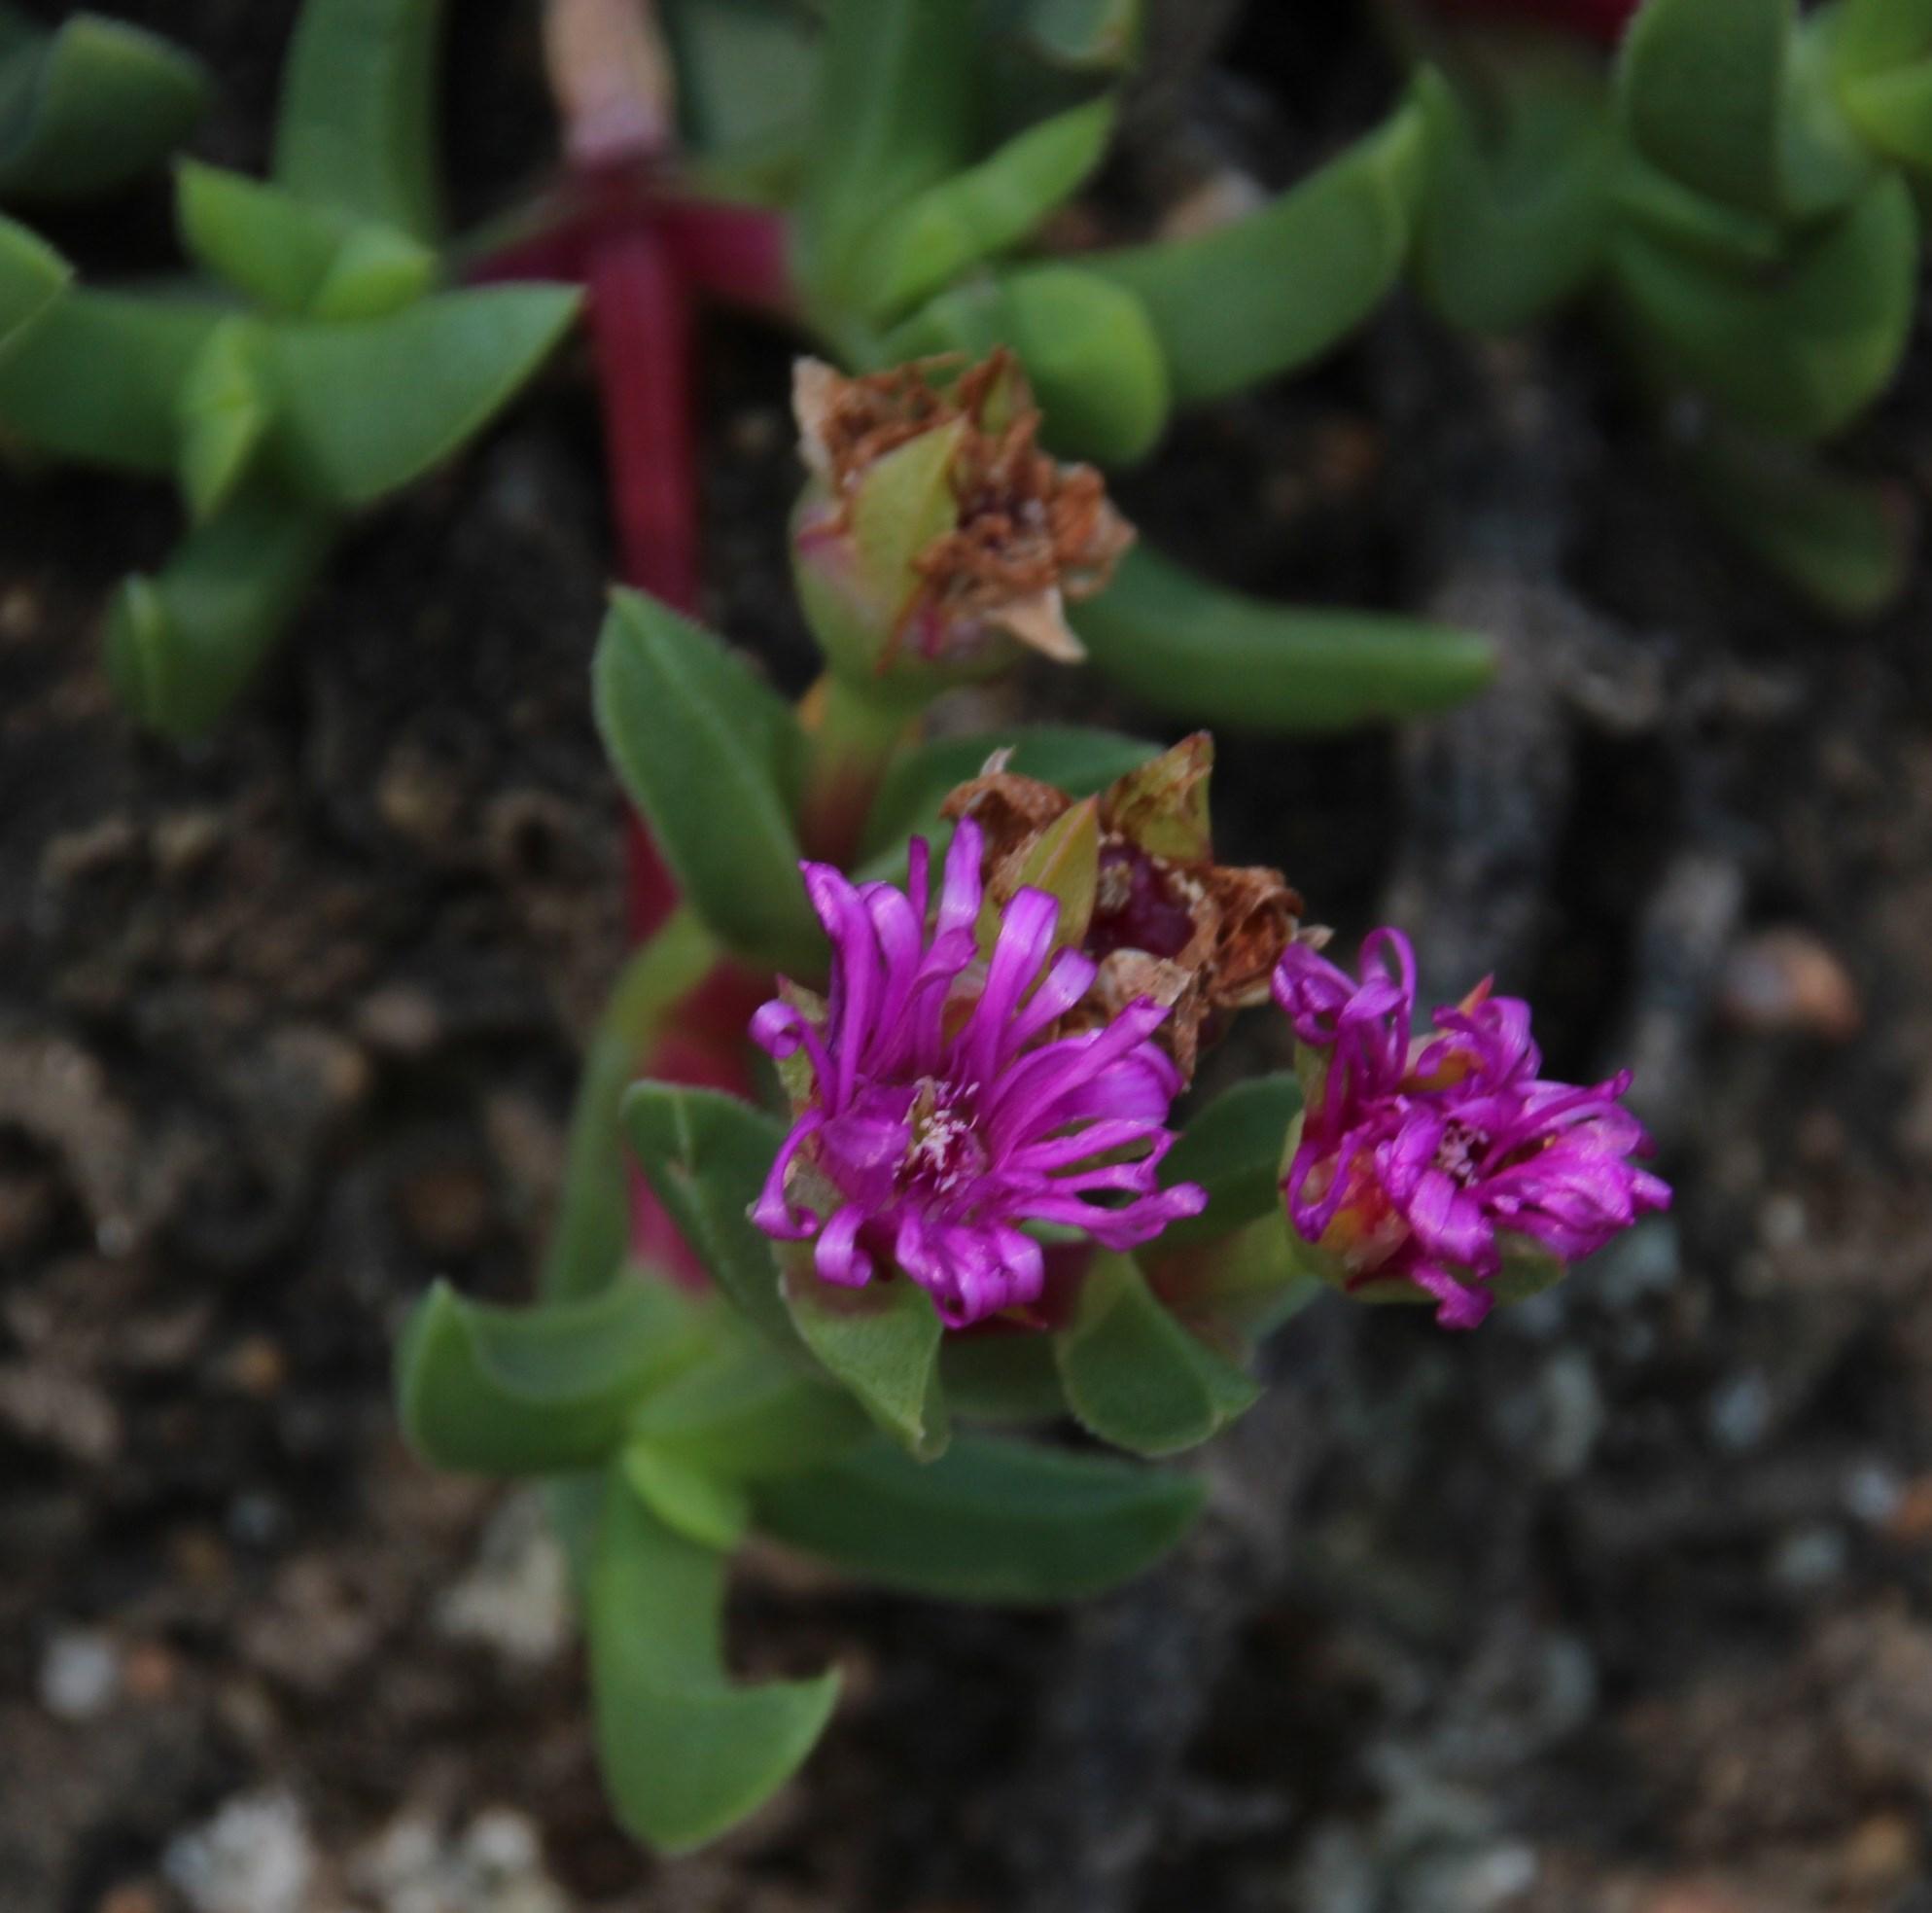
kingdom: Plantae
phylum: Tracheophyta
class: Magnoliopsida
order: Caryophyllales
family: Aizoaceae
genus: Ruschia
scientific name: Ruschia rubricaulis
